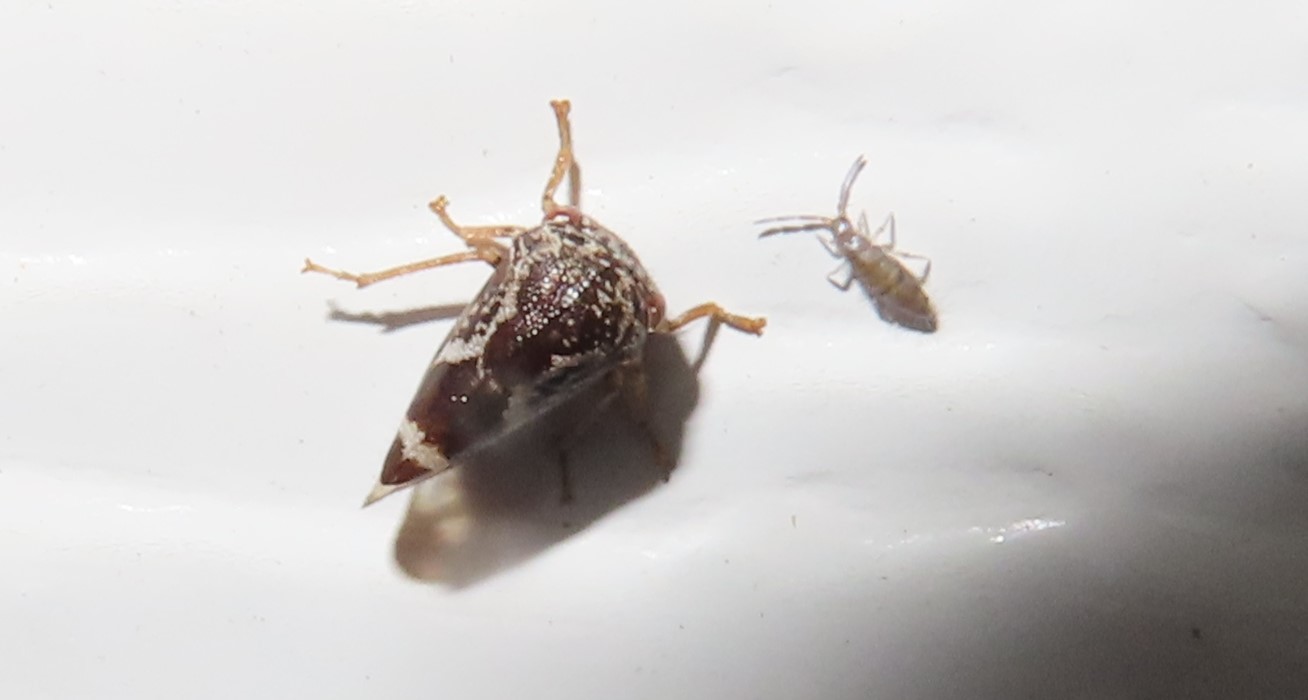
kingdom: Animalia
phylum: Arthropoda
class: Collembola
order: Entomobryomorpha
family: Entomobryidae
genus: Willowsia
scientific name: Willowsia nigromaculata
